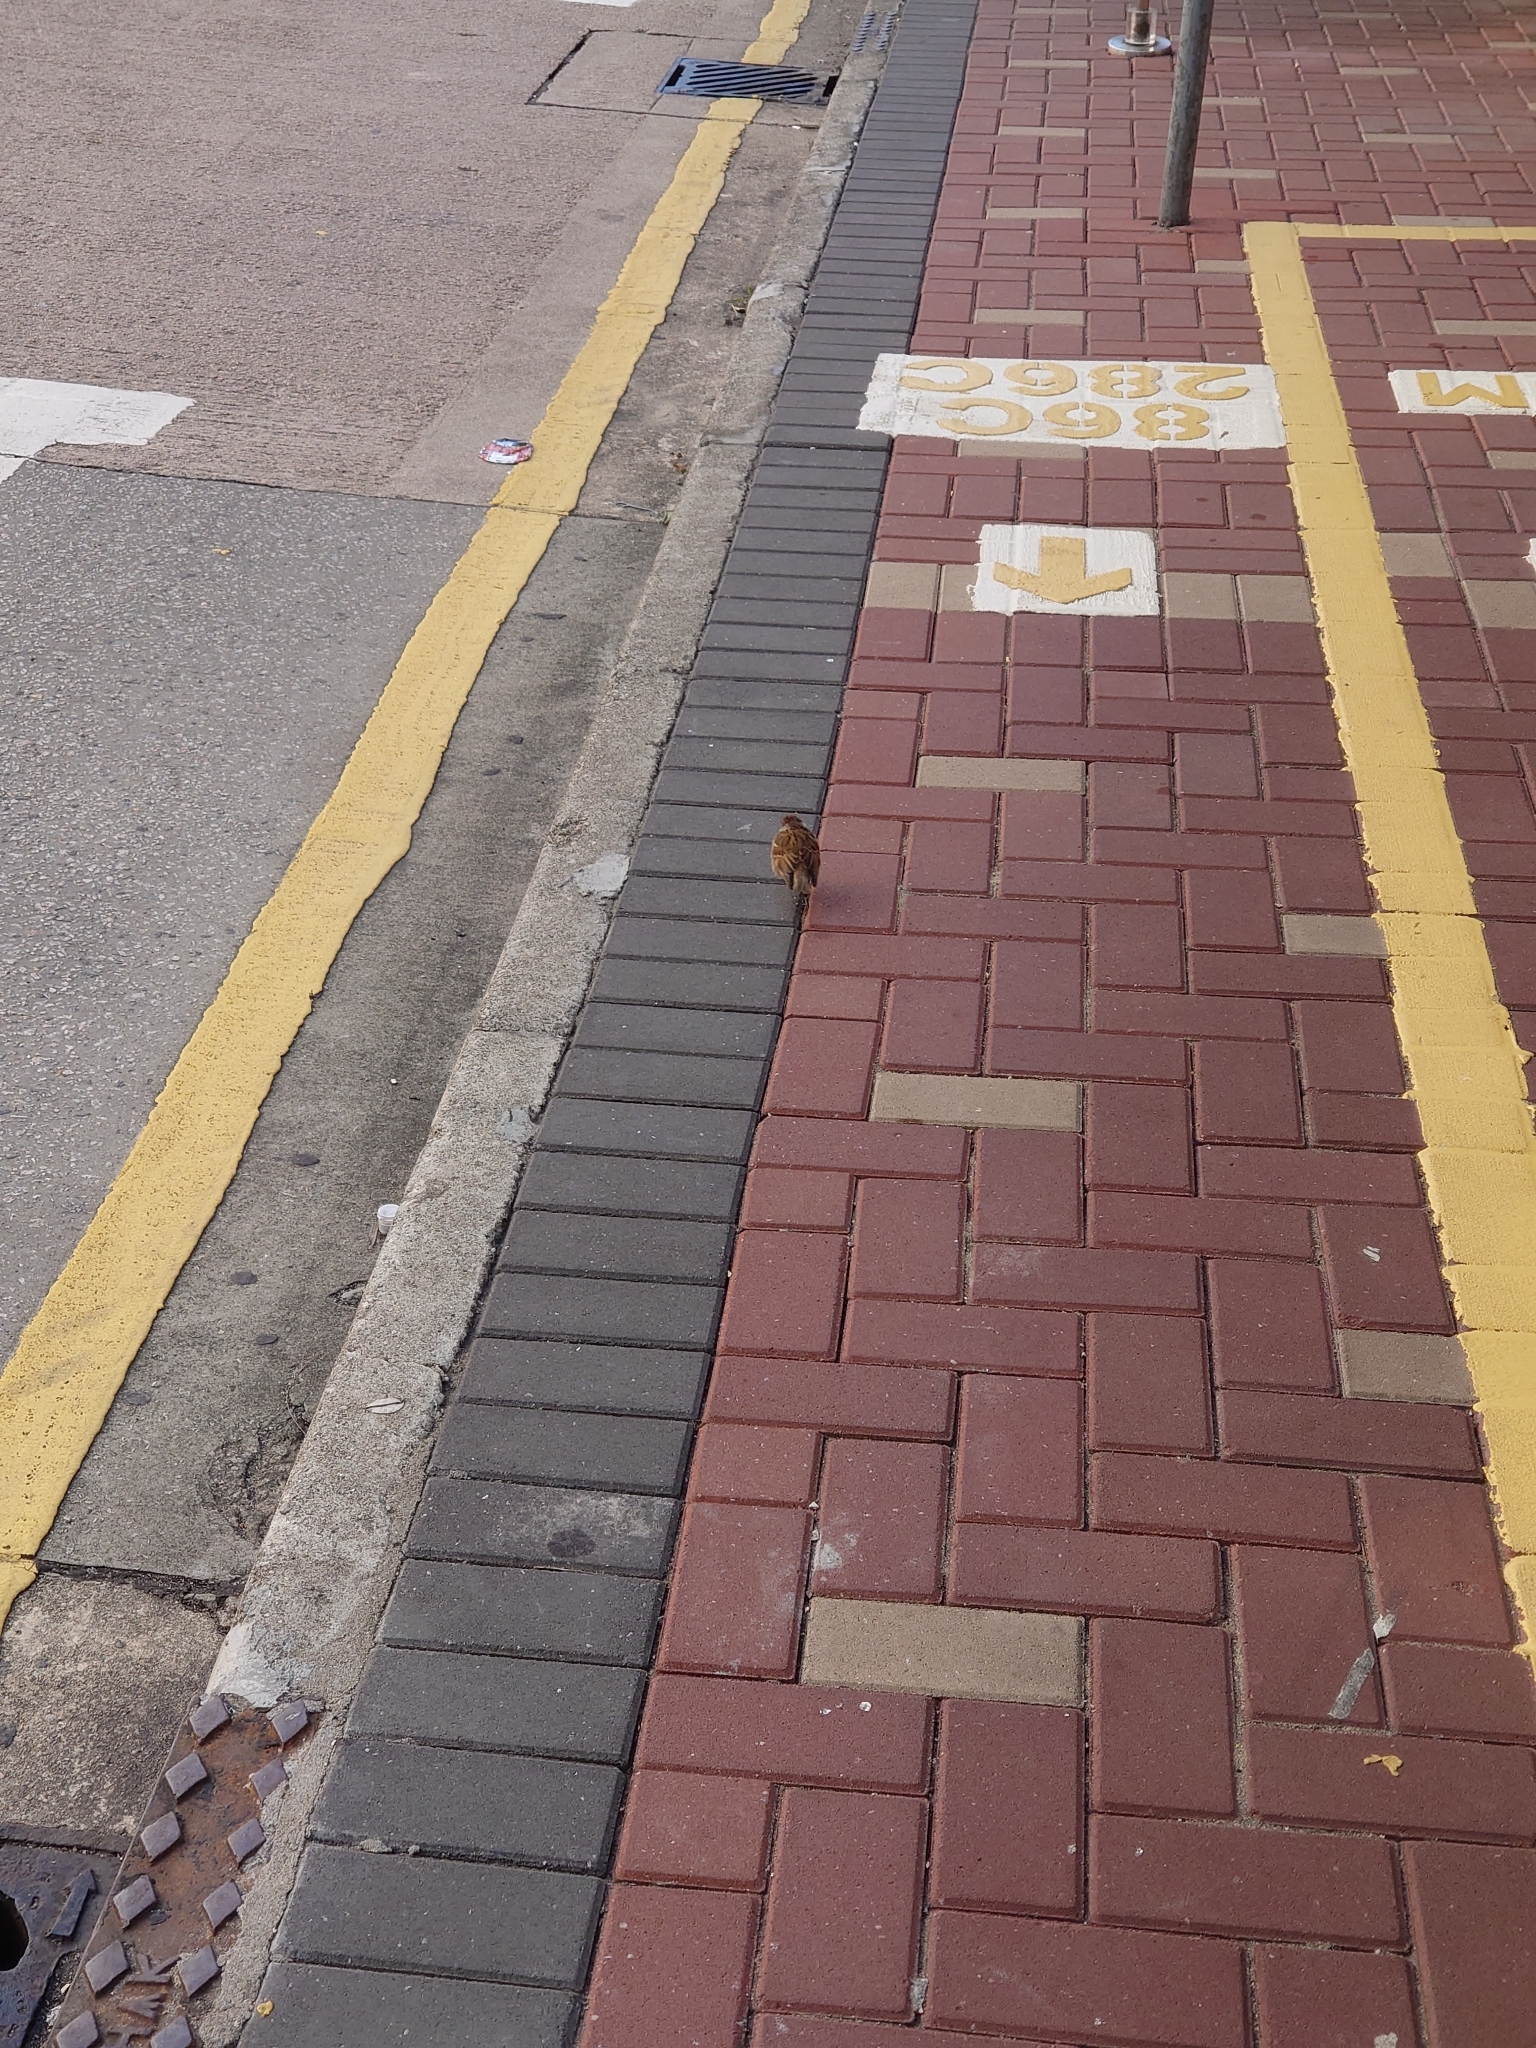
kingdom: Animalia
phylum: Chordata
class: Aves
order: Passeriformes
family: Passeridae
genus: Passer
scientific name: Passer montanus
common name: Eurasian tree sparrow
